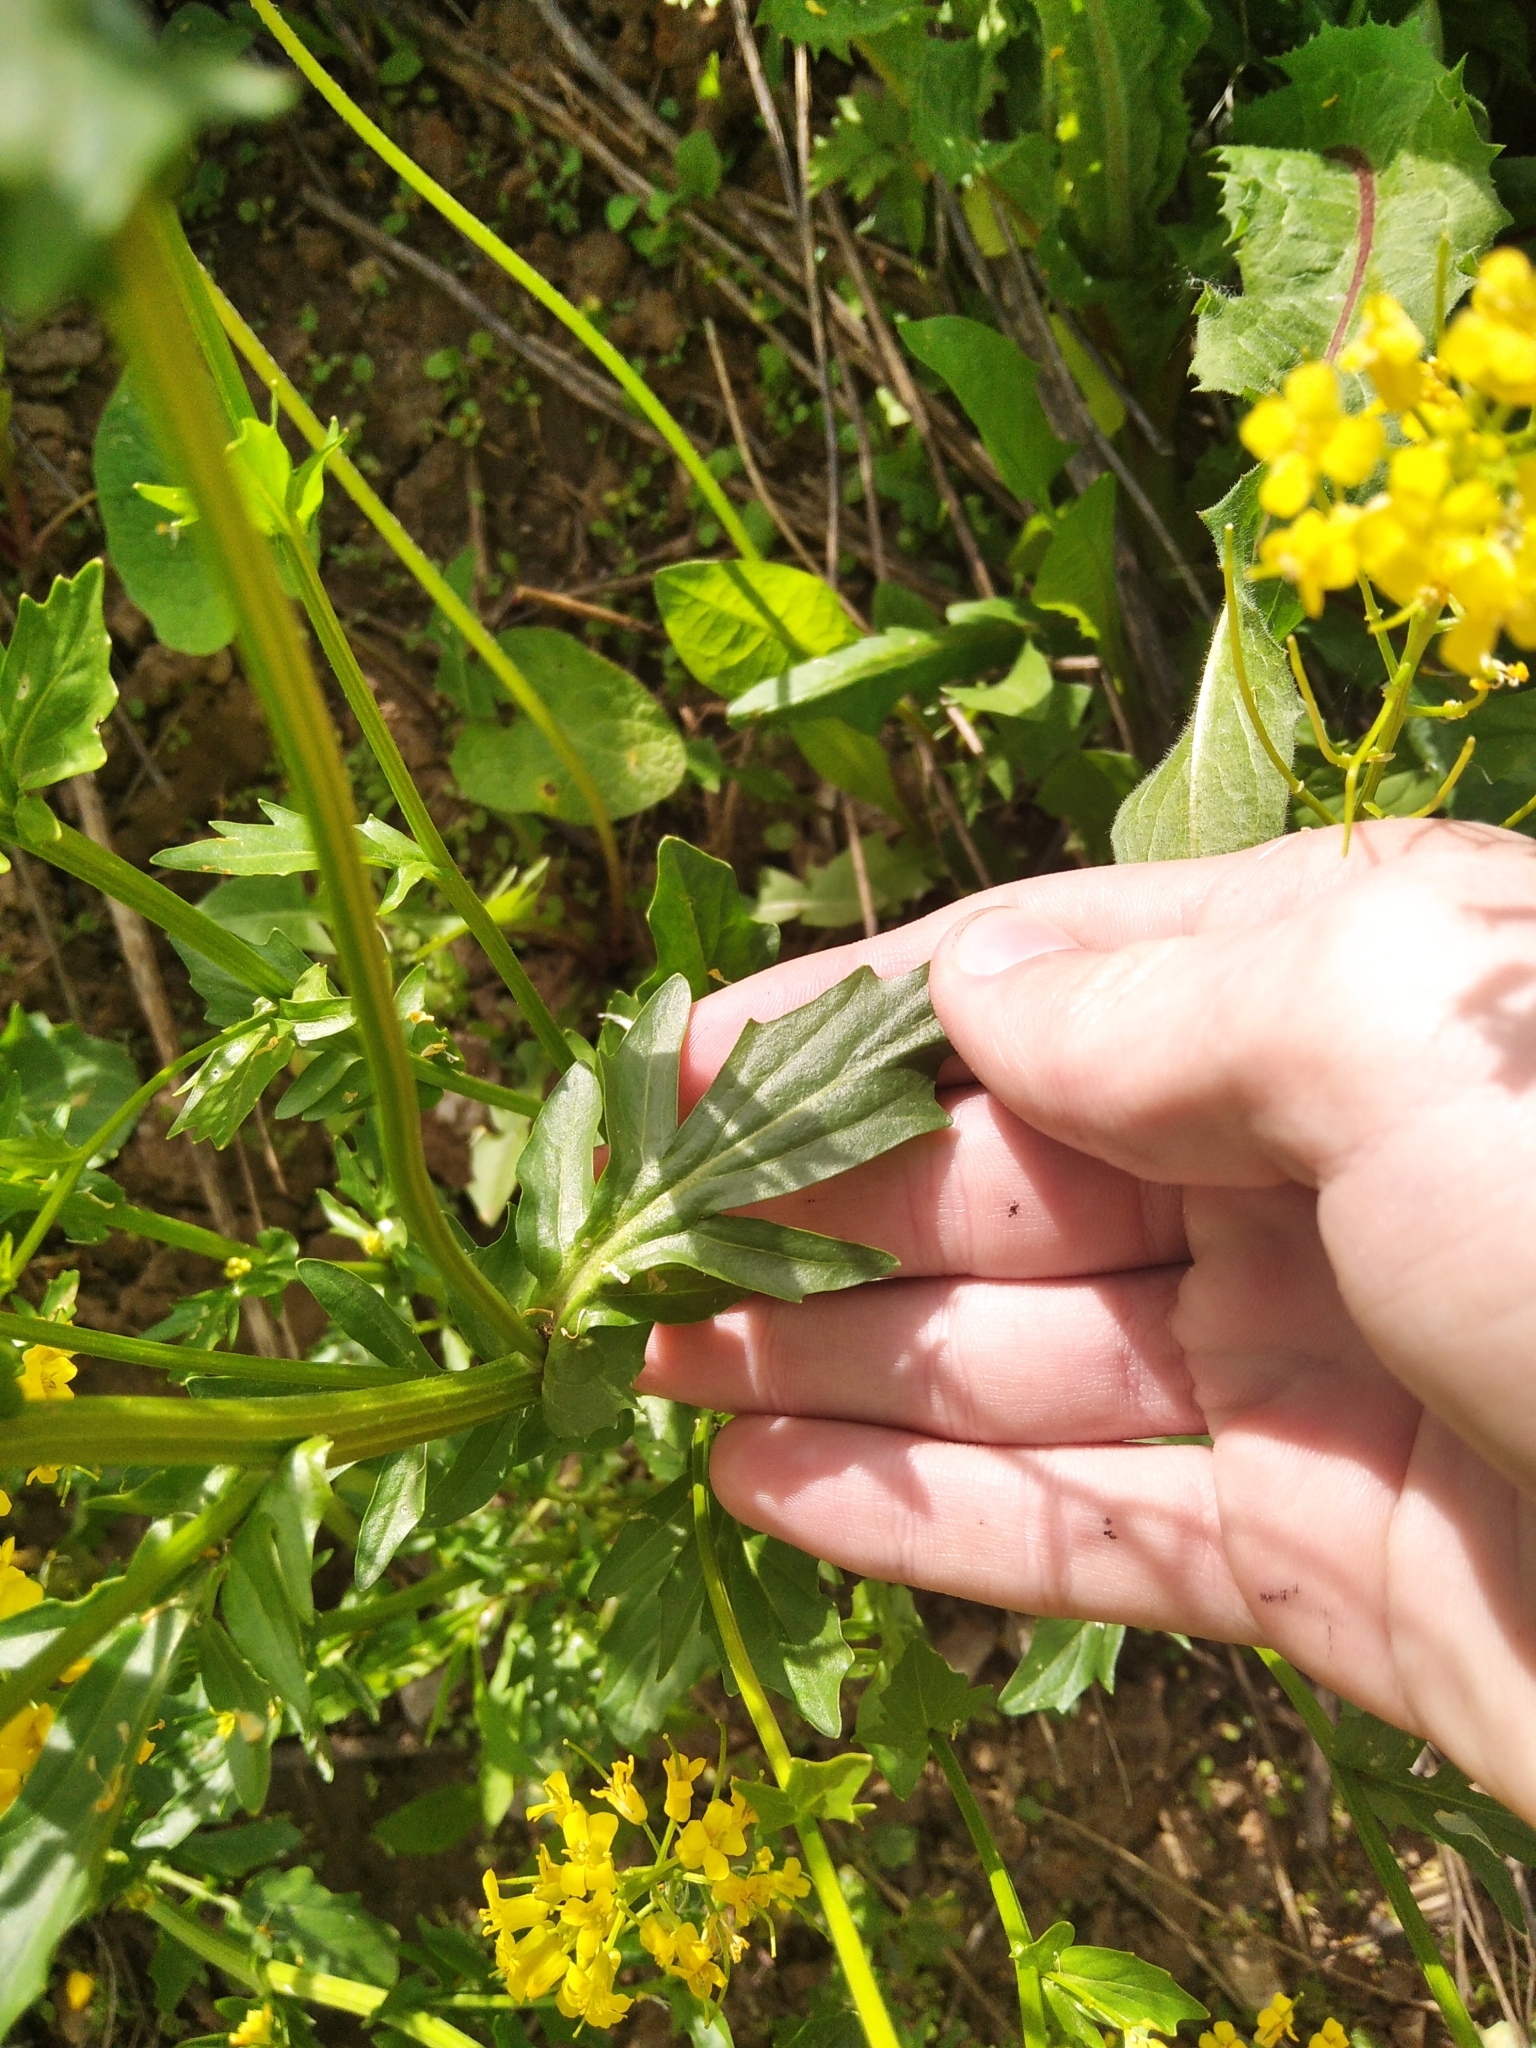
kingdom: Plantae
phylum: Tracheophyta
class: Magnoliopsida
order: Brassicales
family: Brassicaceae
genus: Barbarea
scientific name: Barbarea vulgaris
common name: Cressy-greens
